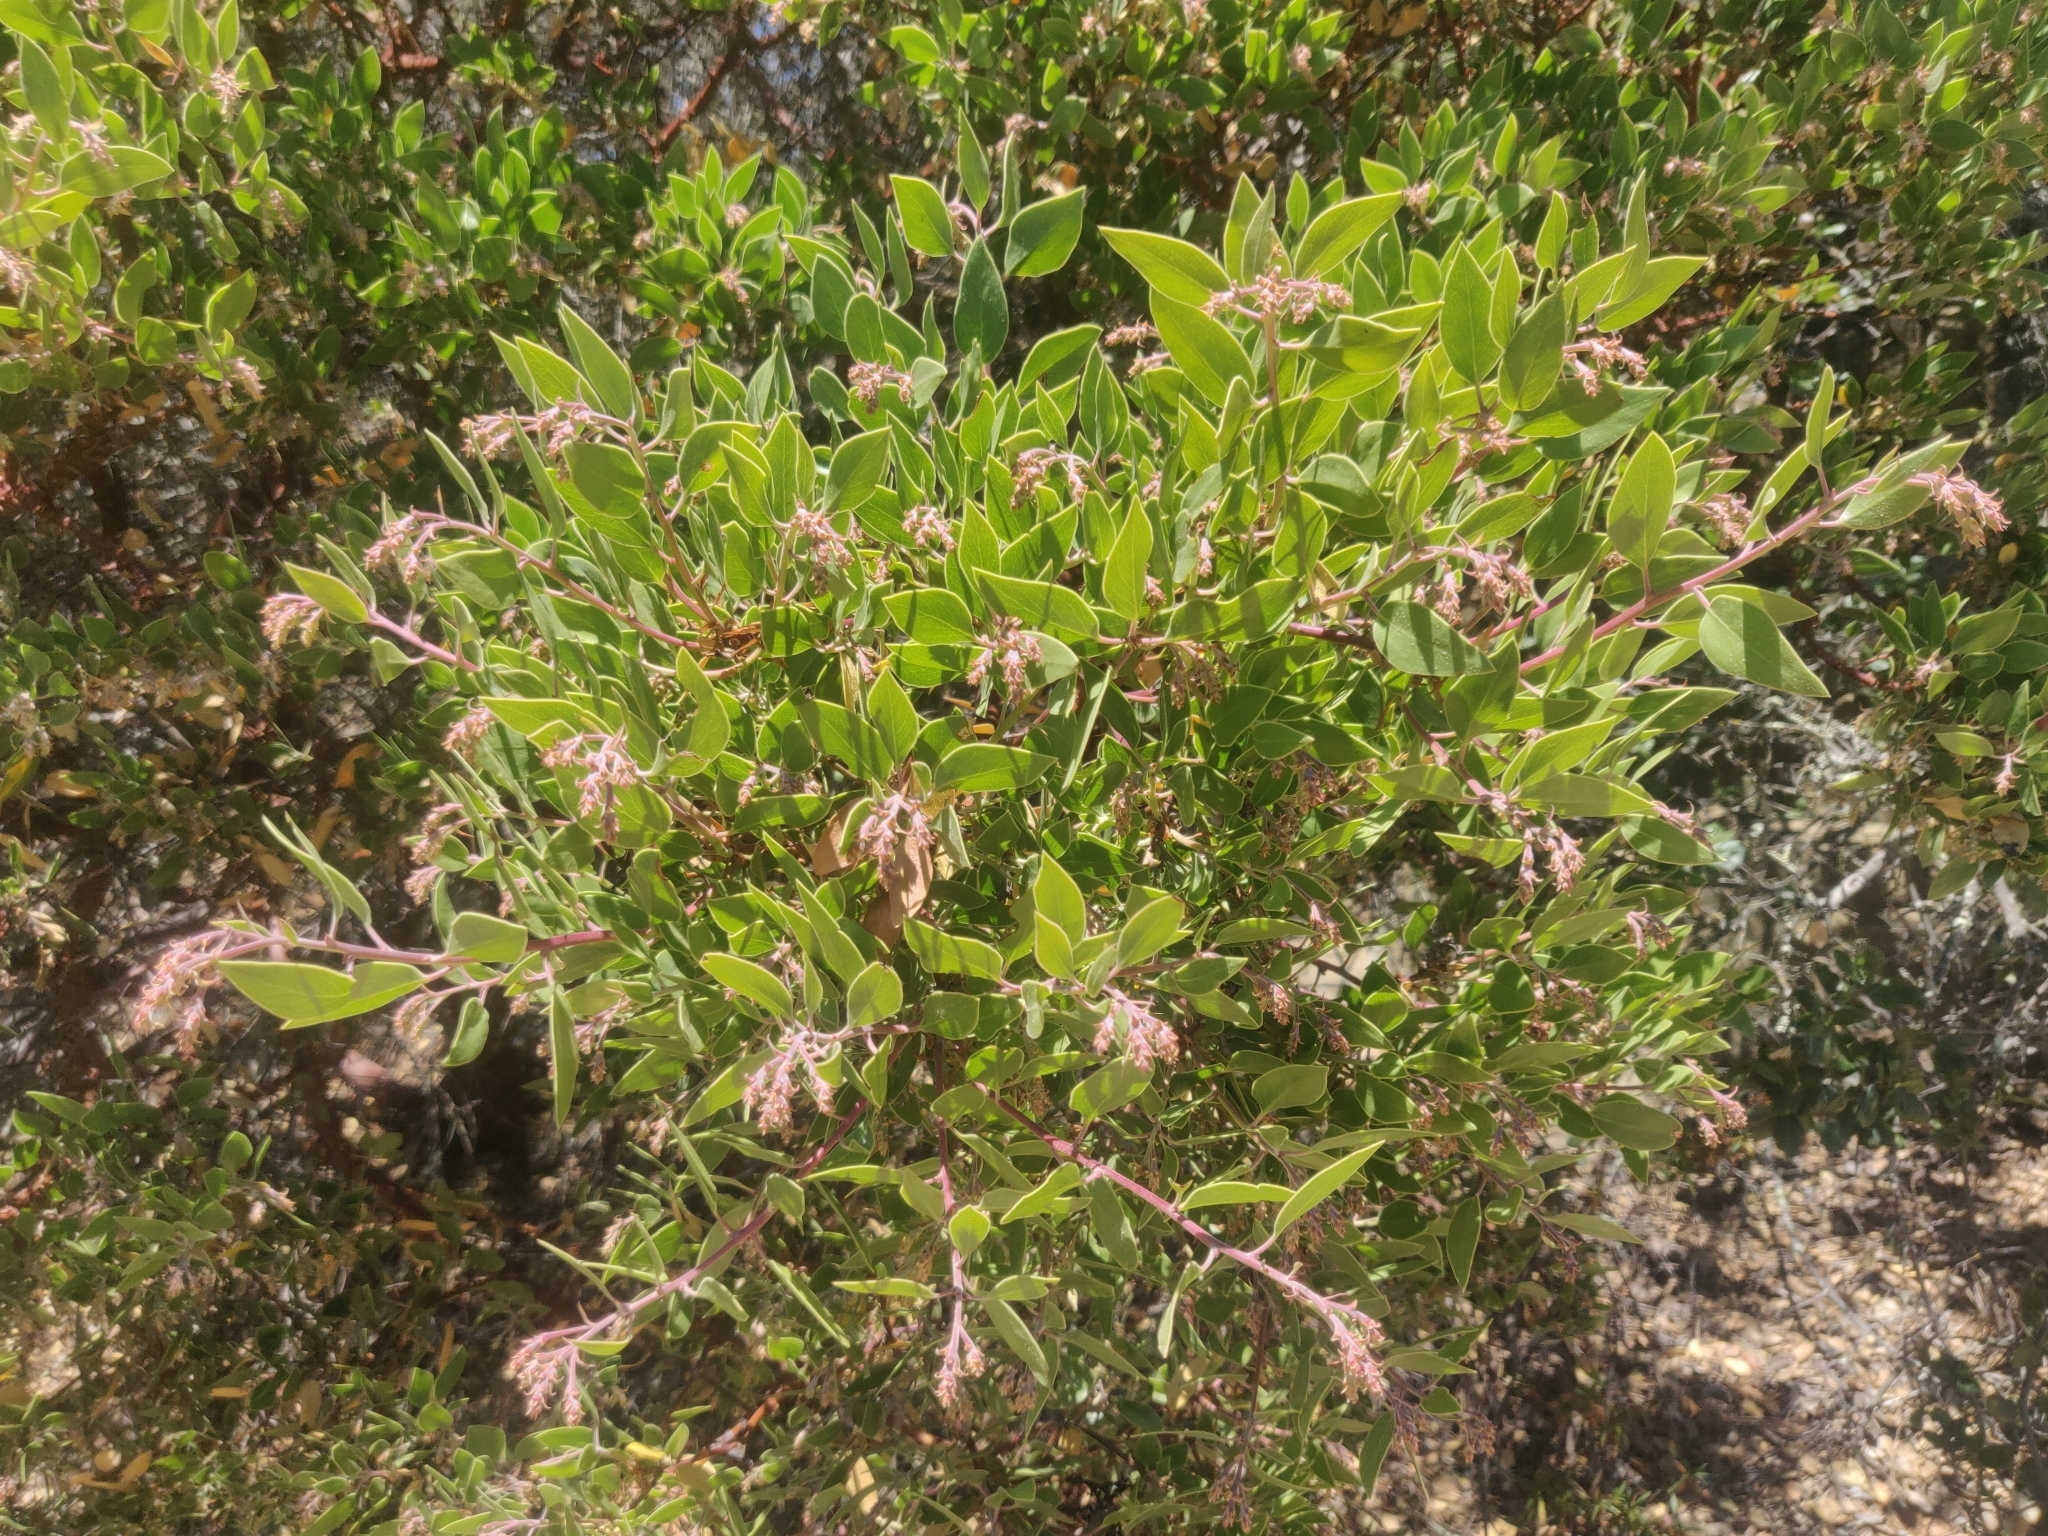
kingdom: Plantae
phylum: Tracheophyta
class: Magnoliopsida
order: Ericales
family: Ericaceae
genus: Arctostaphylos
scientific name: Arctostaphylos manzanita
